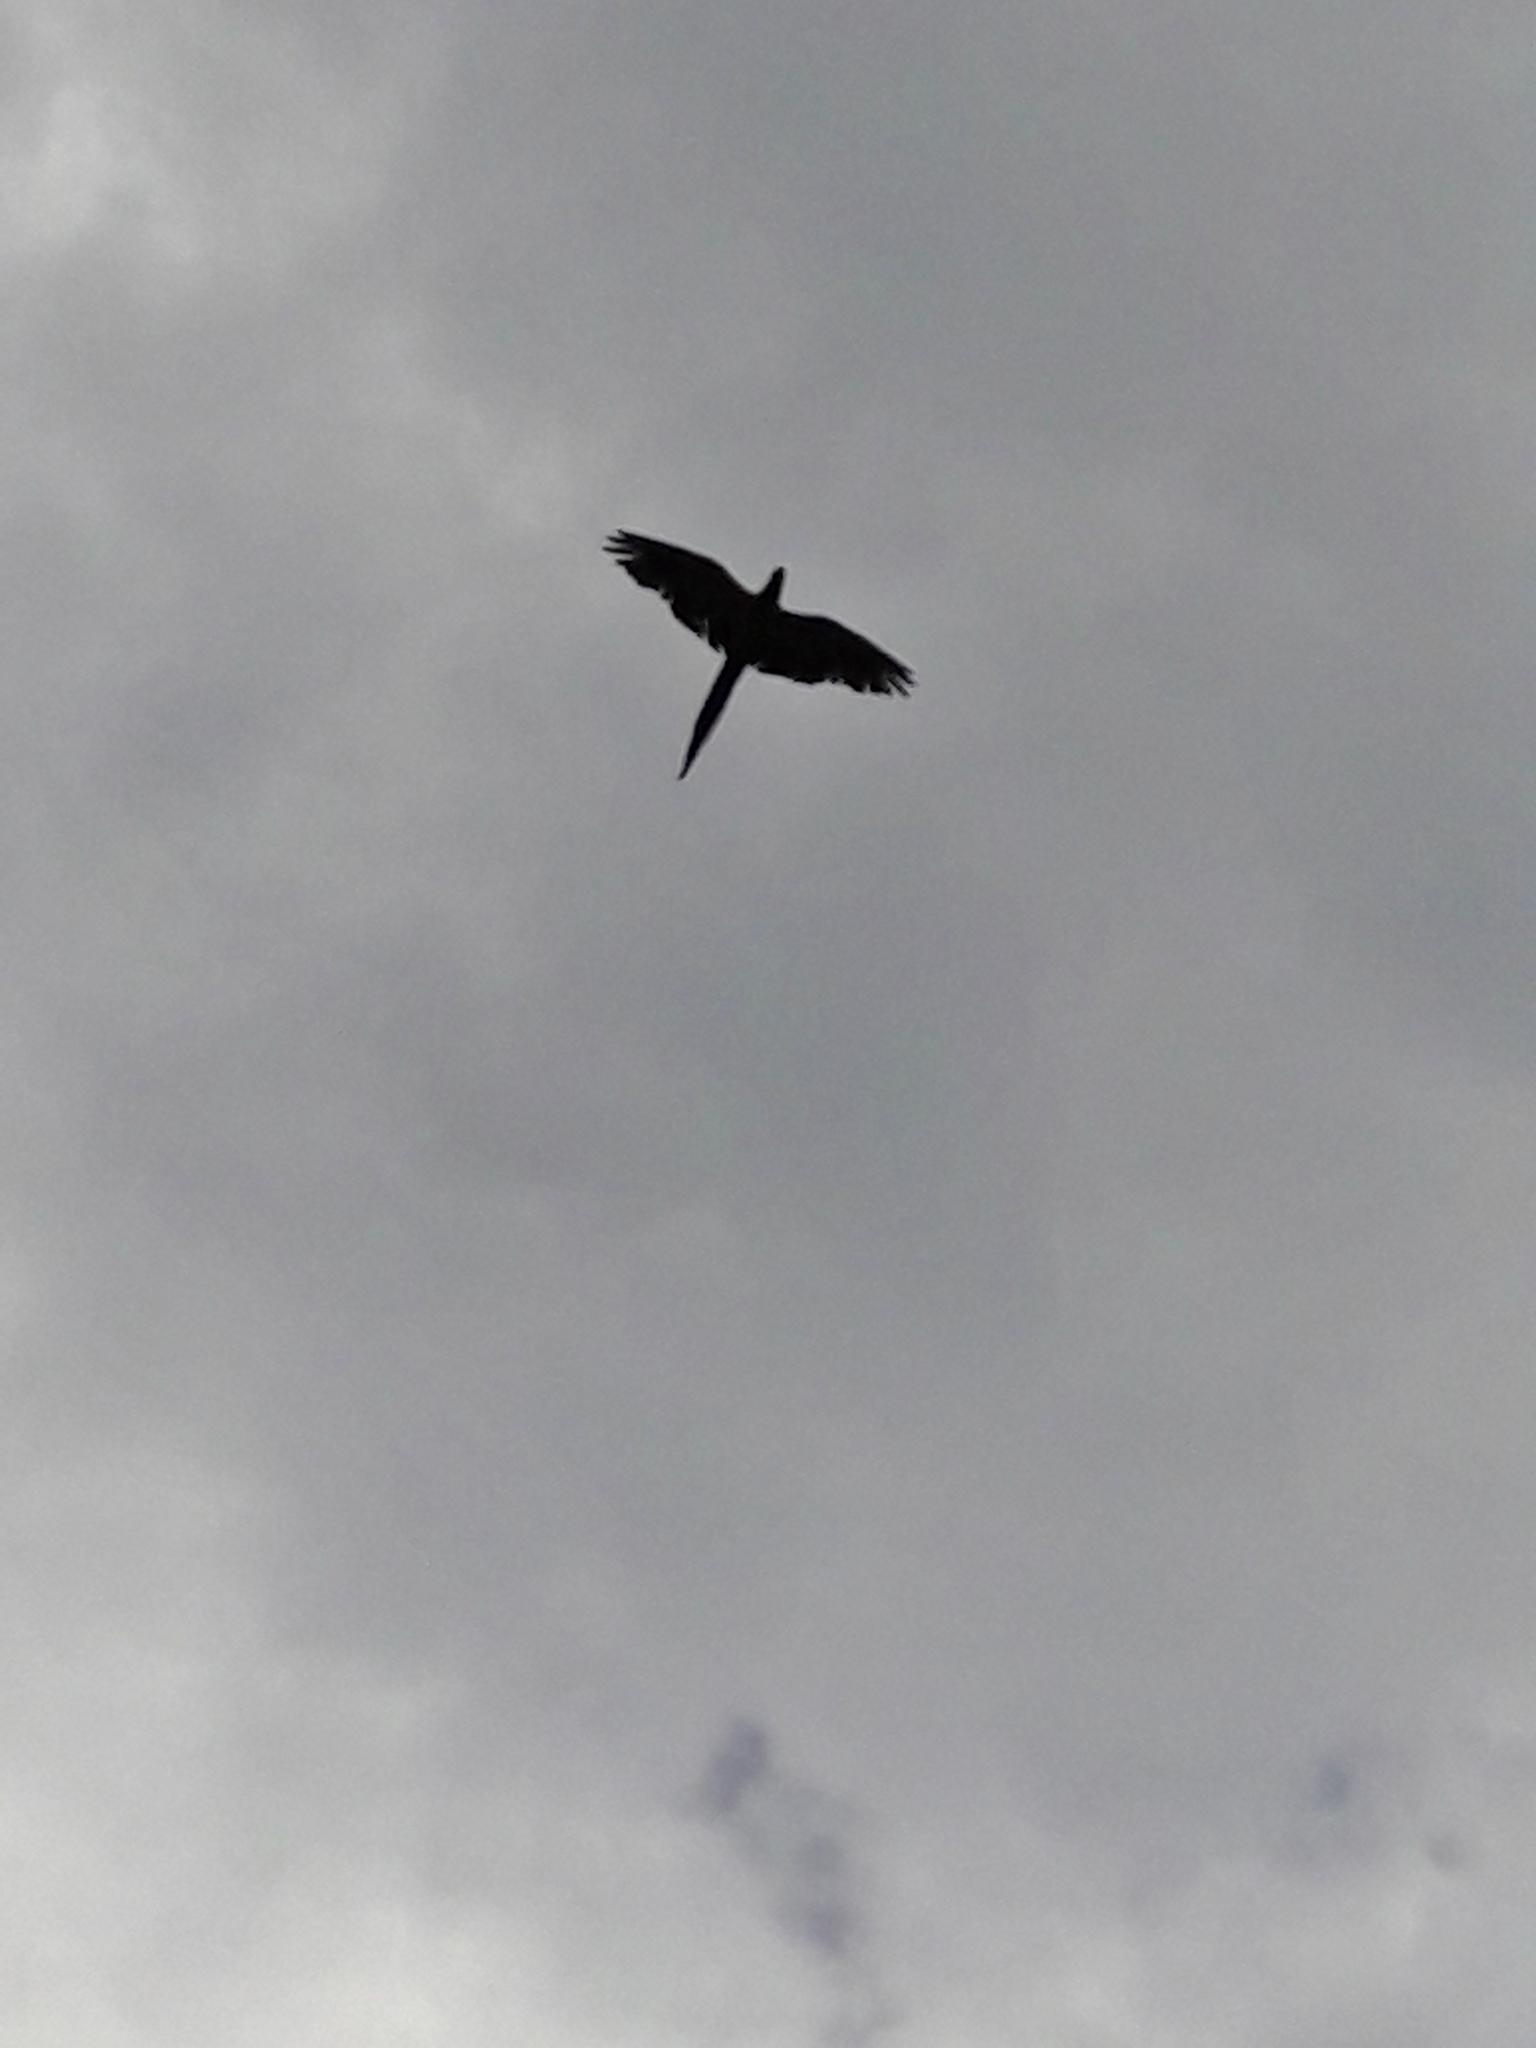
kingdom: Animalia
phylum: Chordata
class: Aves
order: Psittaciformes
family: Psittacidae
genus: Ara
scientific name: Ara ararauna
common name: Blue-and-yellow macaw
